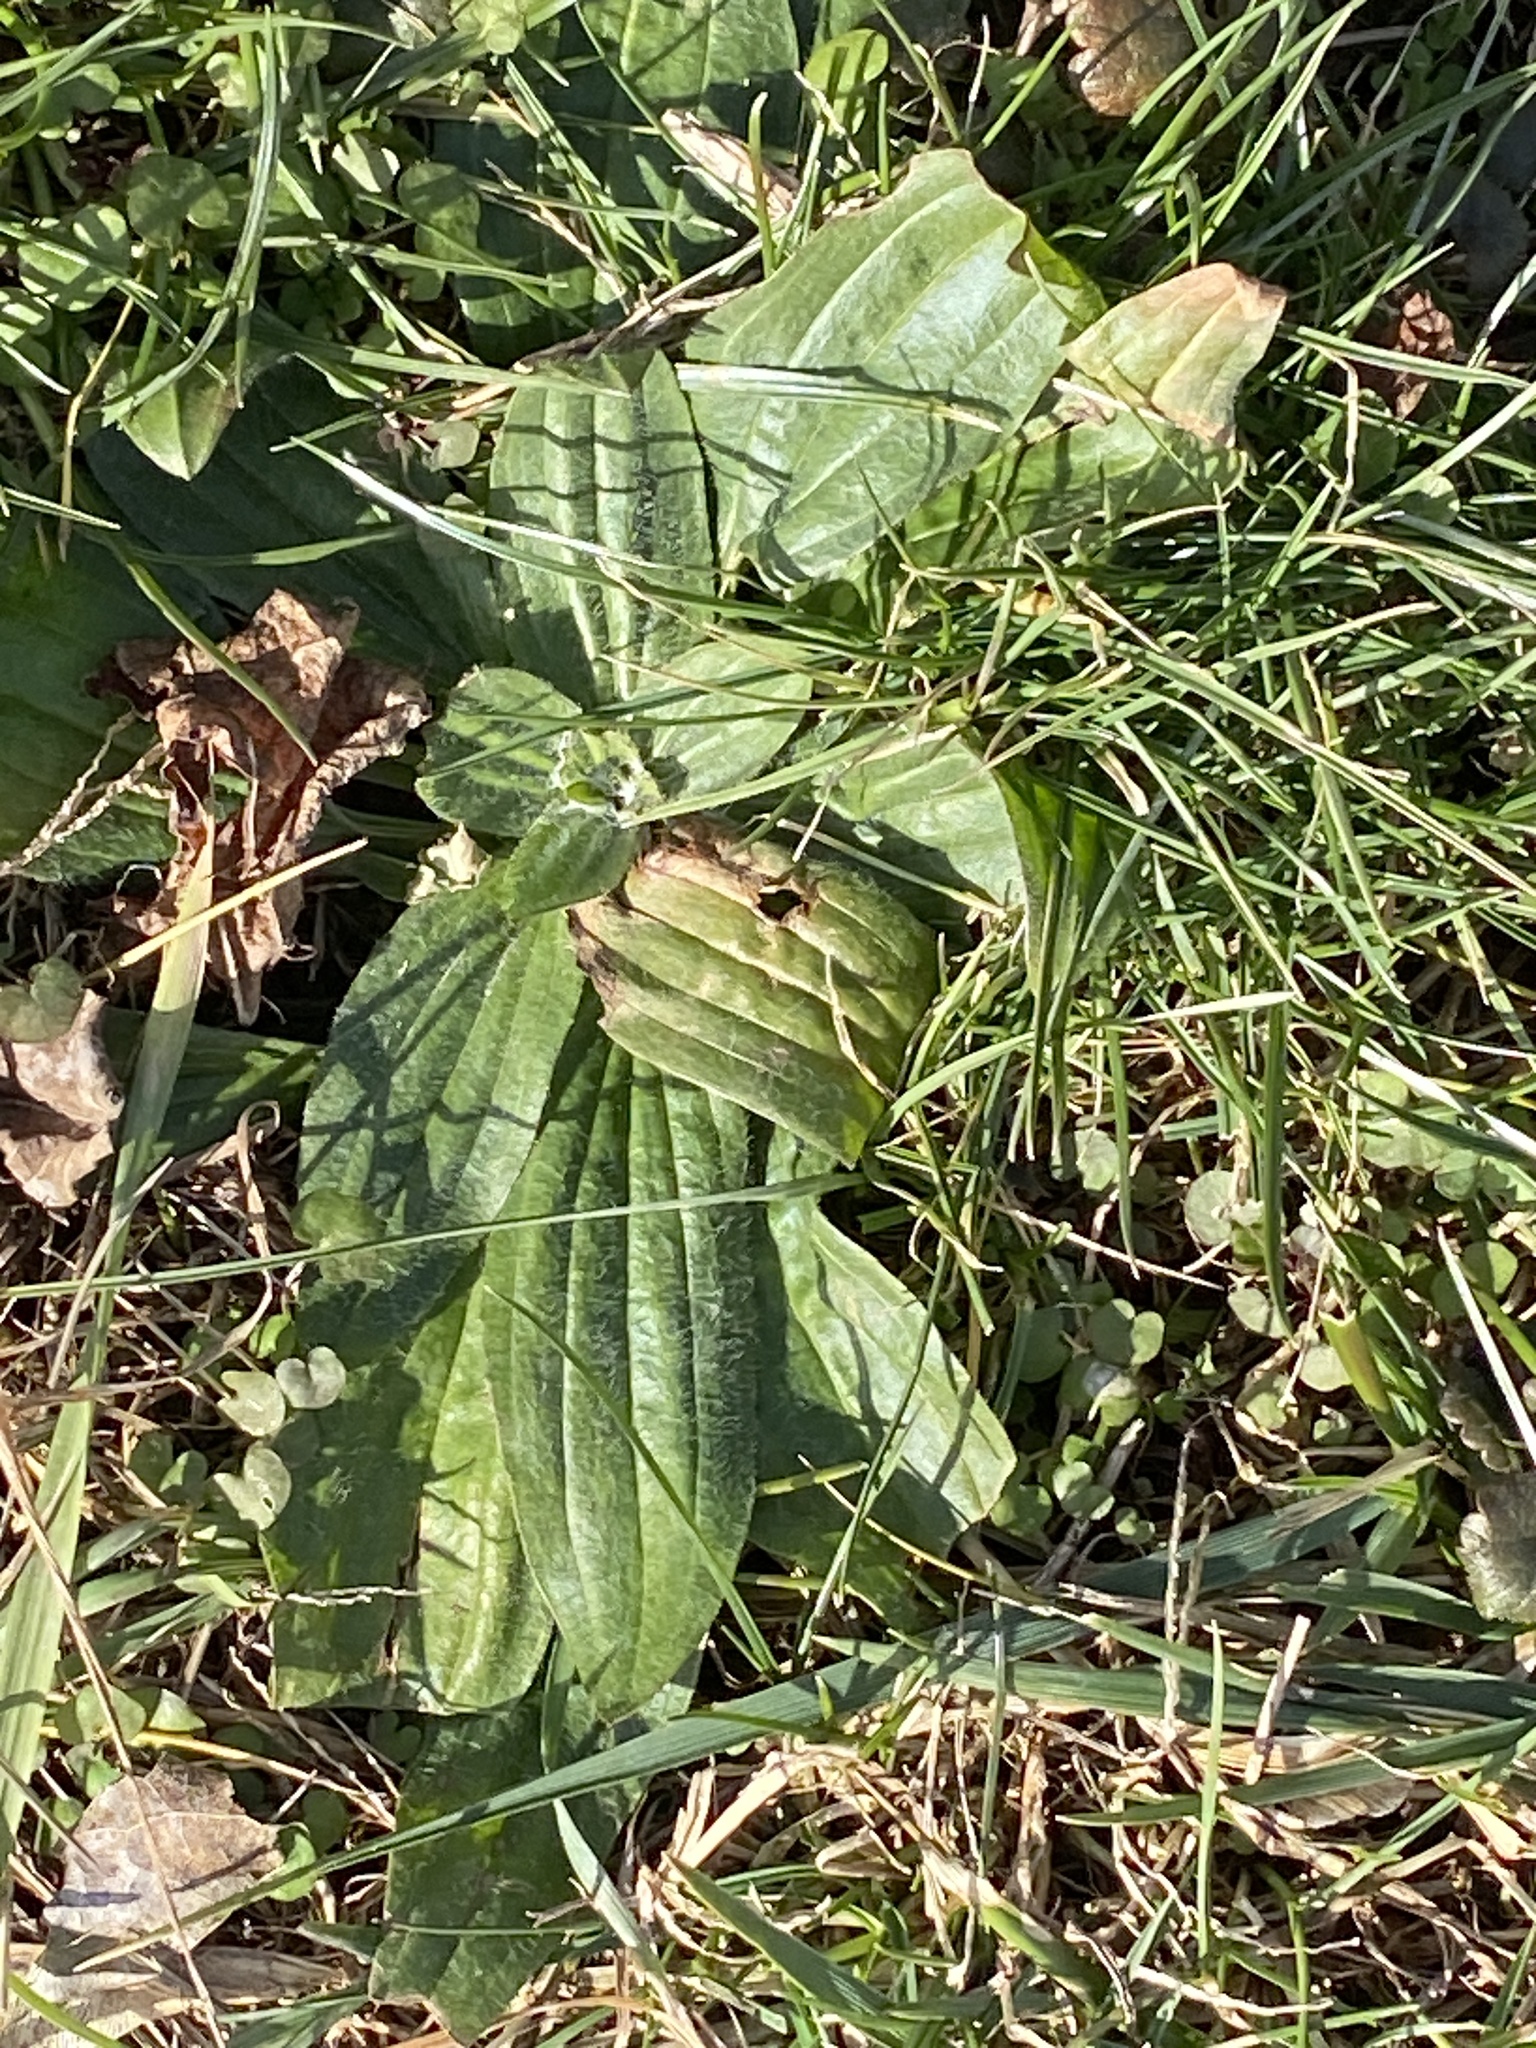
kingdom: Plantae
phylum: Tracheophyta
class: Magnoliopsida
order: Lamiales
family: Plantaginaceae
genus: Plantago
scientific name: Plantago lanceolata
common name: Ribwort plantain
